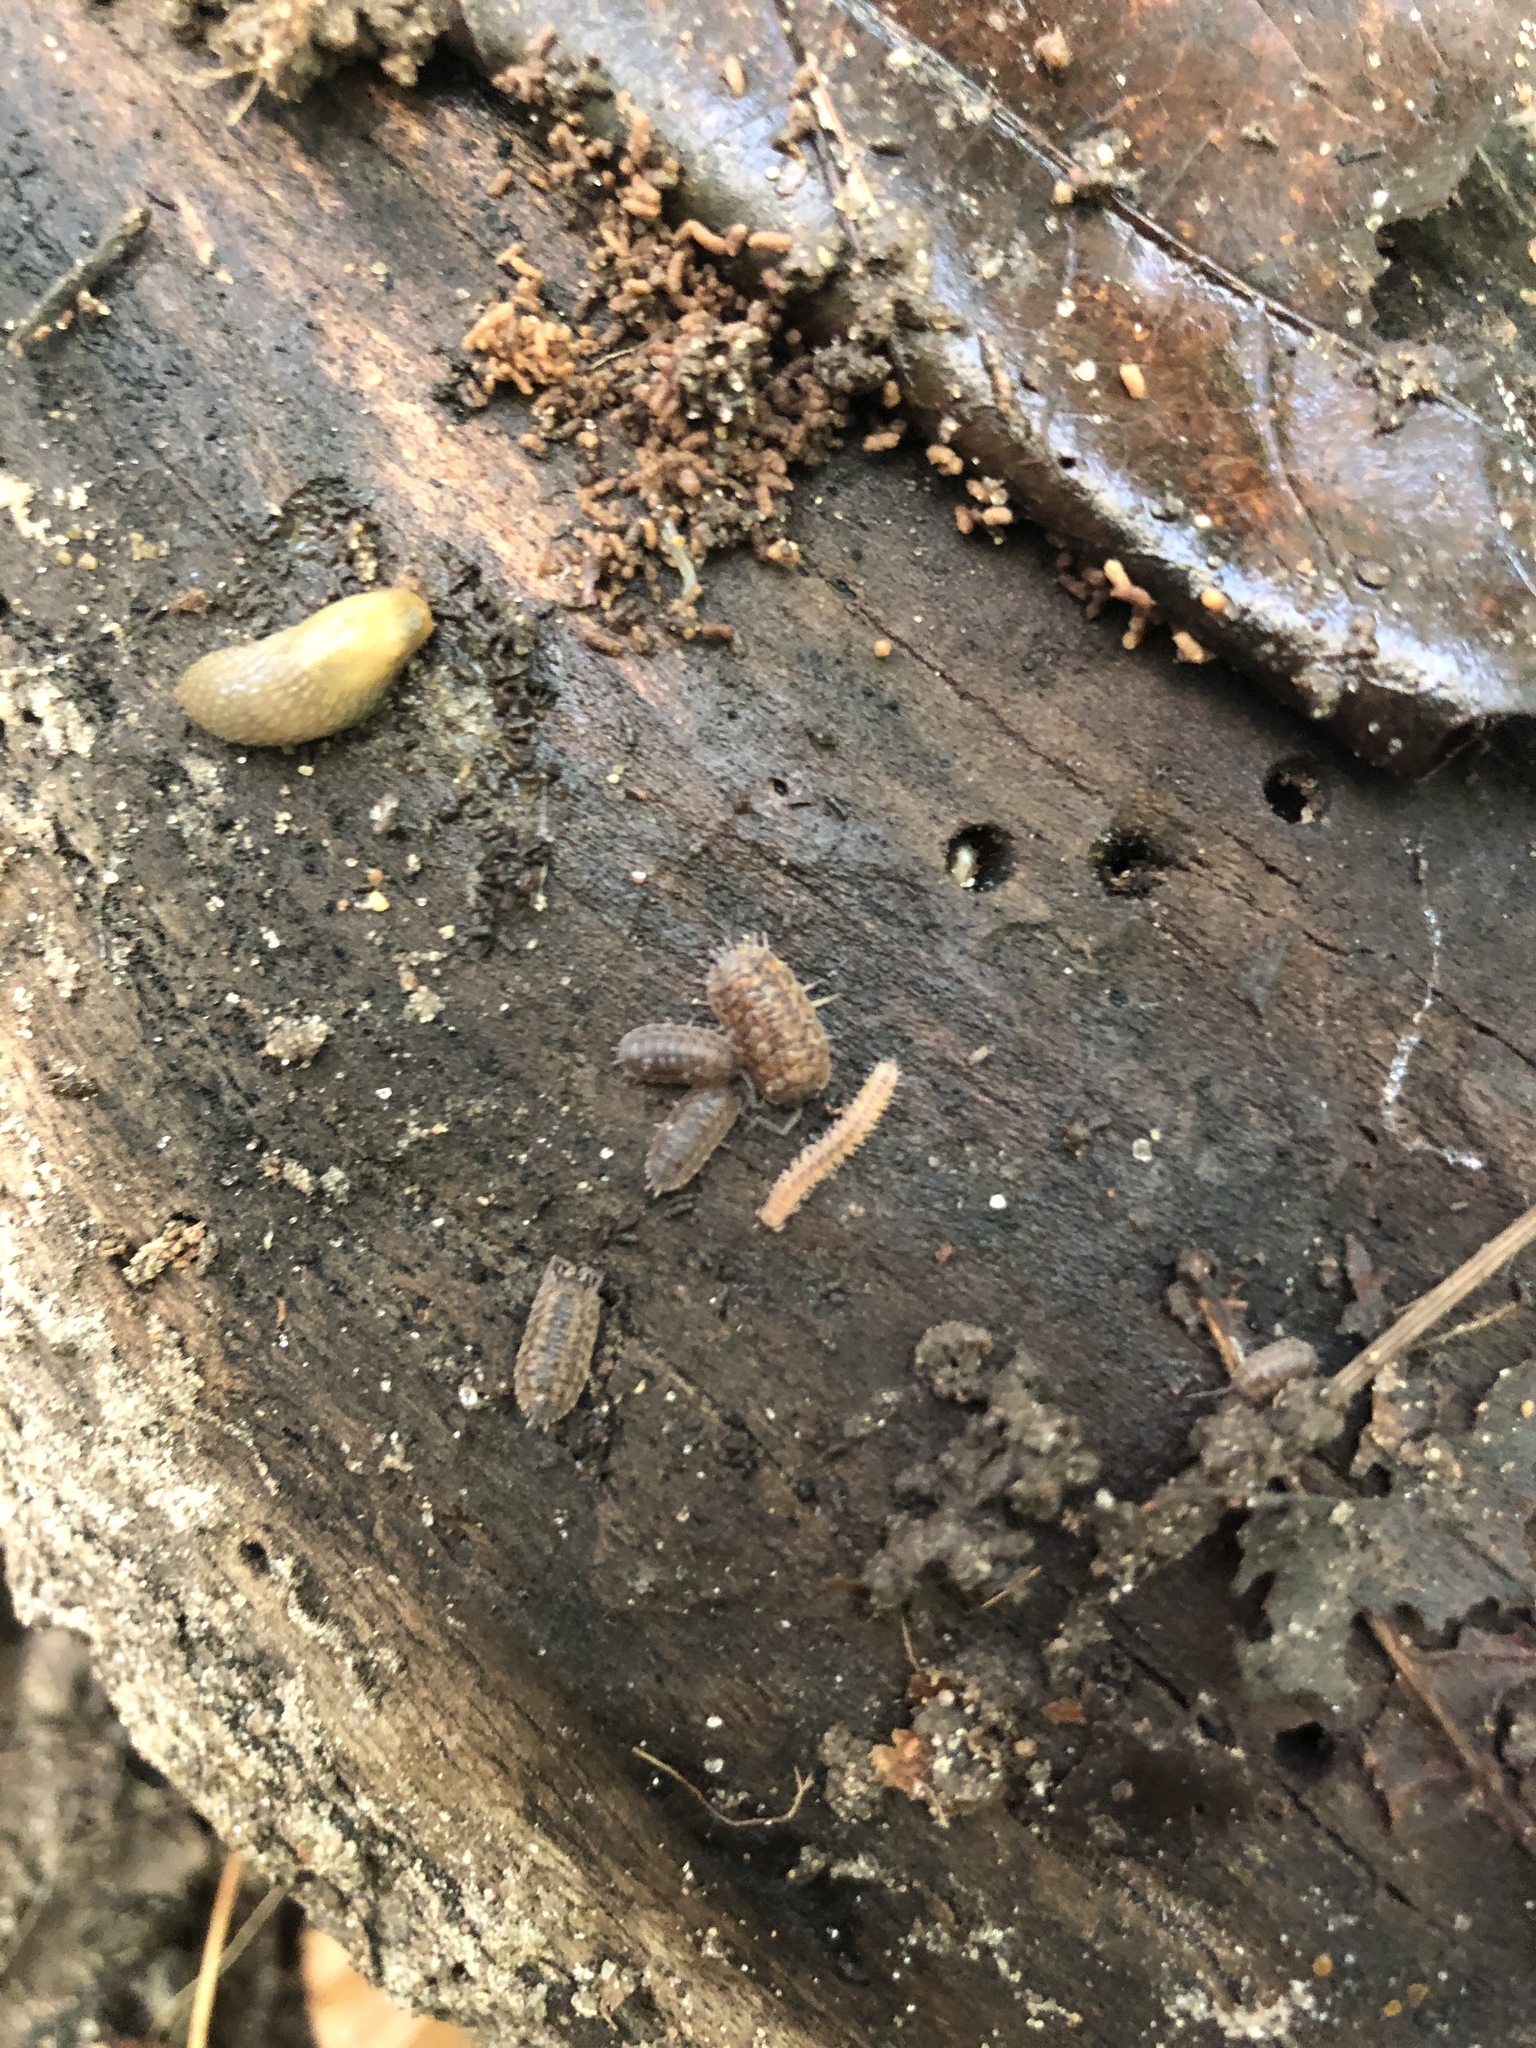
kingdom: Animalia
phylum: Arthropoda
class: Malacostraca
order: Isopoda
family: Trachelipodidae
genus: Trachelipus
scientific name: Trachelipus rathkii
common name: Isopod
